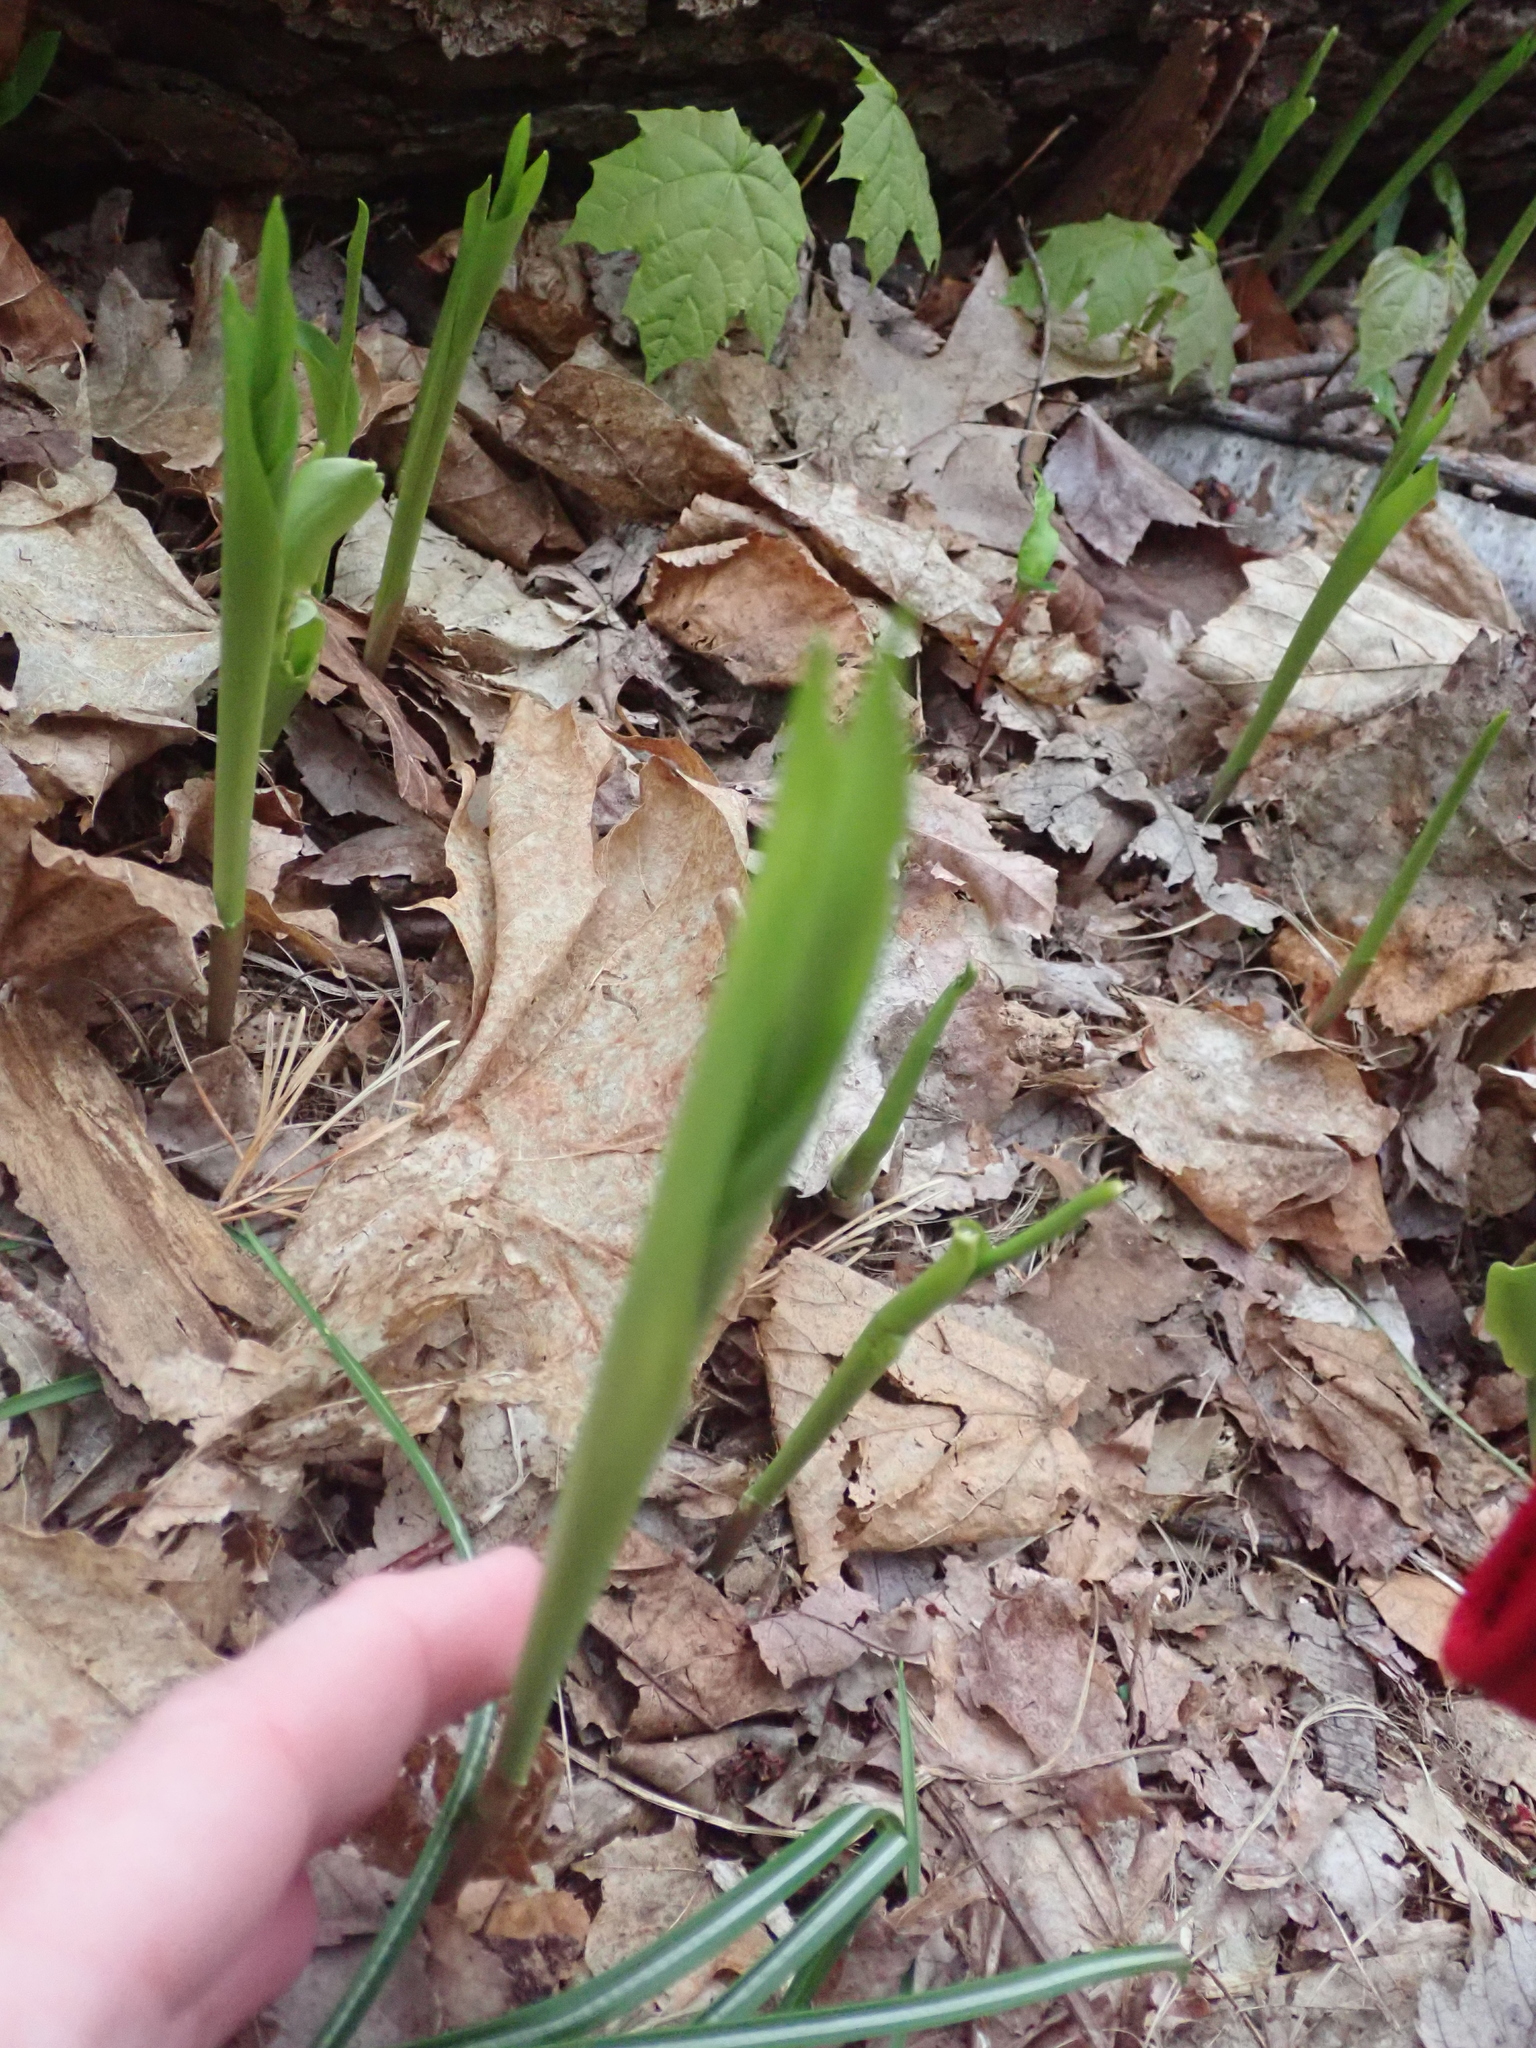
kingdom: Plantae
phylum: Tracheophyta
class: Liliopsida
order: Asparagales
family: Asparagaceae
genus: Convallaria
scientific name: Convallaria majalis
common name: Lily-of-the-valley
